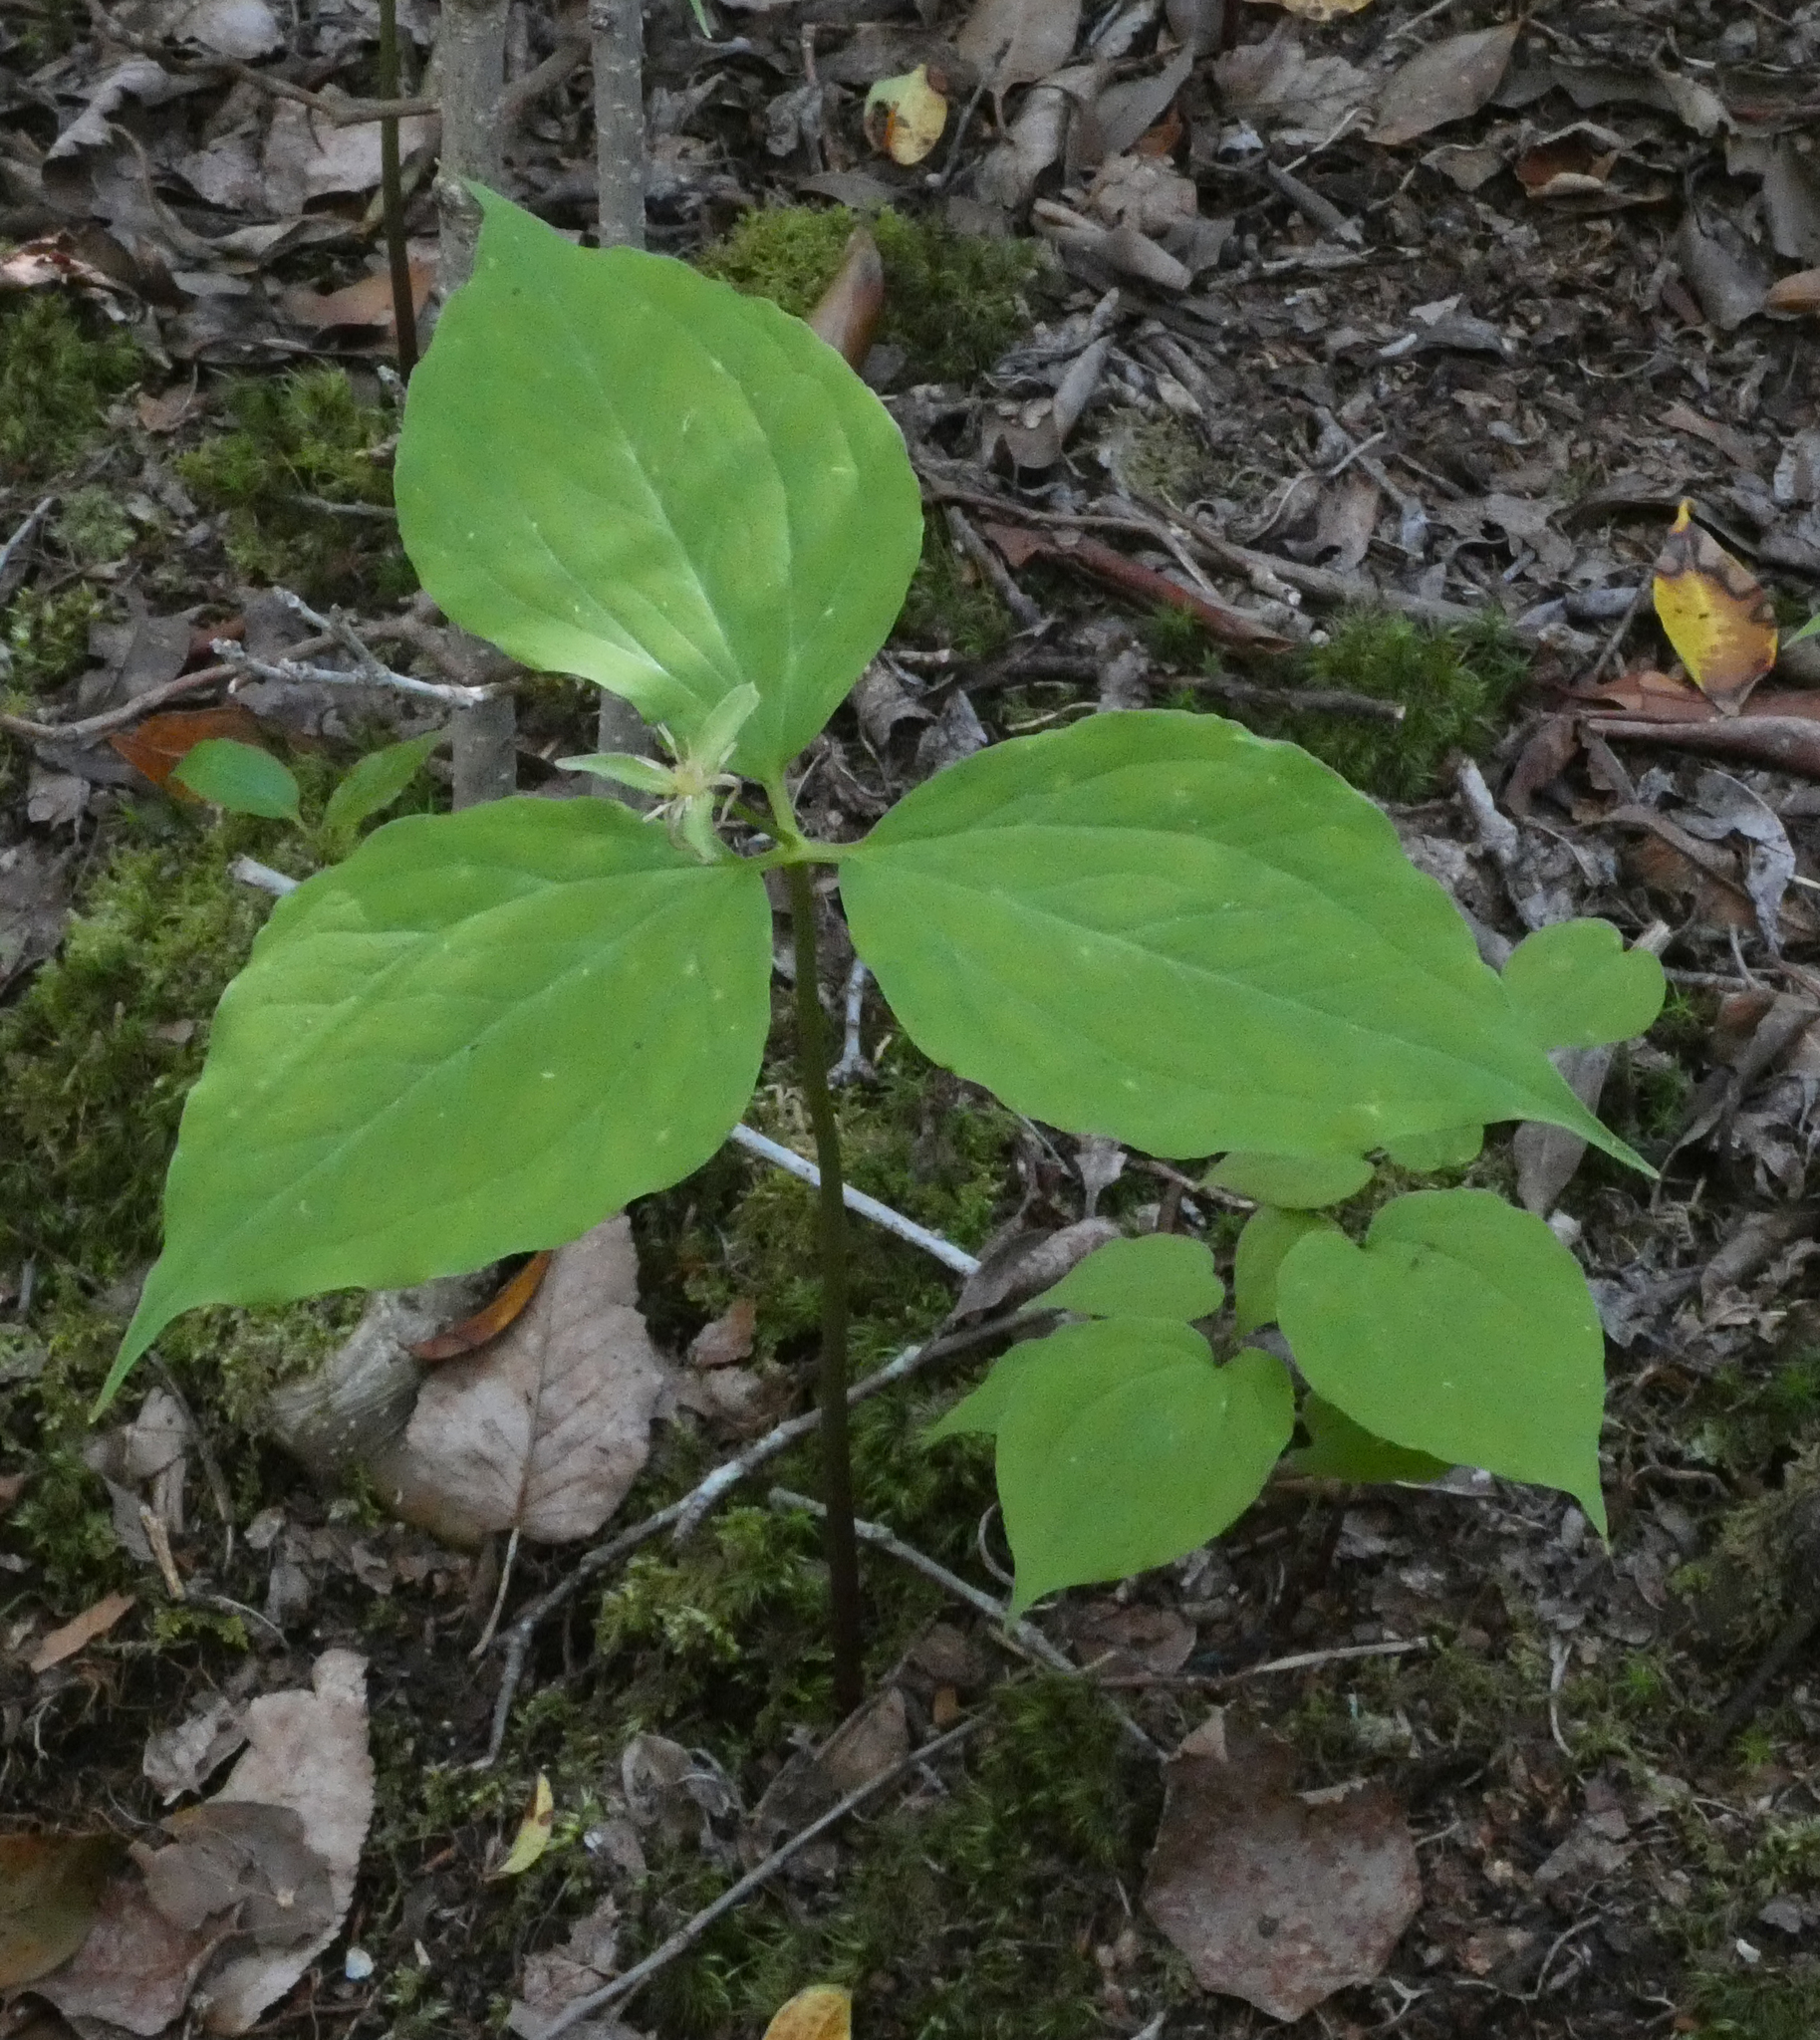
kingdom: Plantae
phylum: Tracheophyta
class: Liliopsida
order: Liliales
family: Melanthiaceae
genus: Trillium
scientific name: Trillium undulatum
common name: Paint trillium
